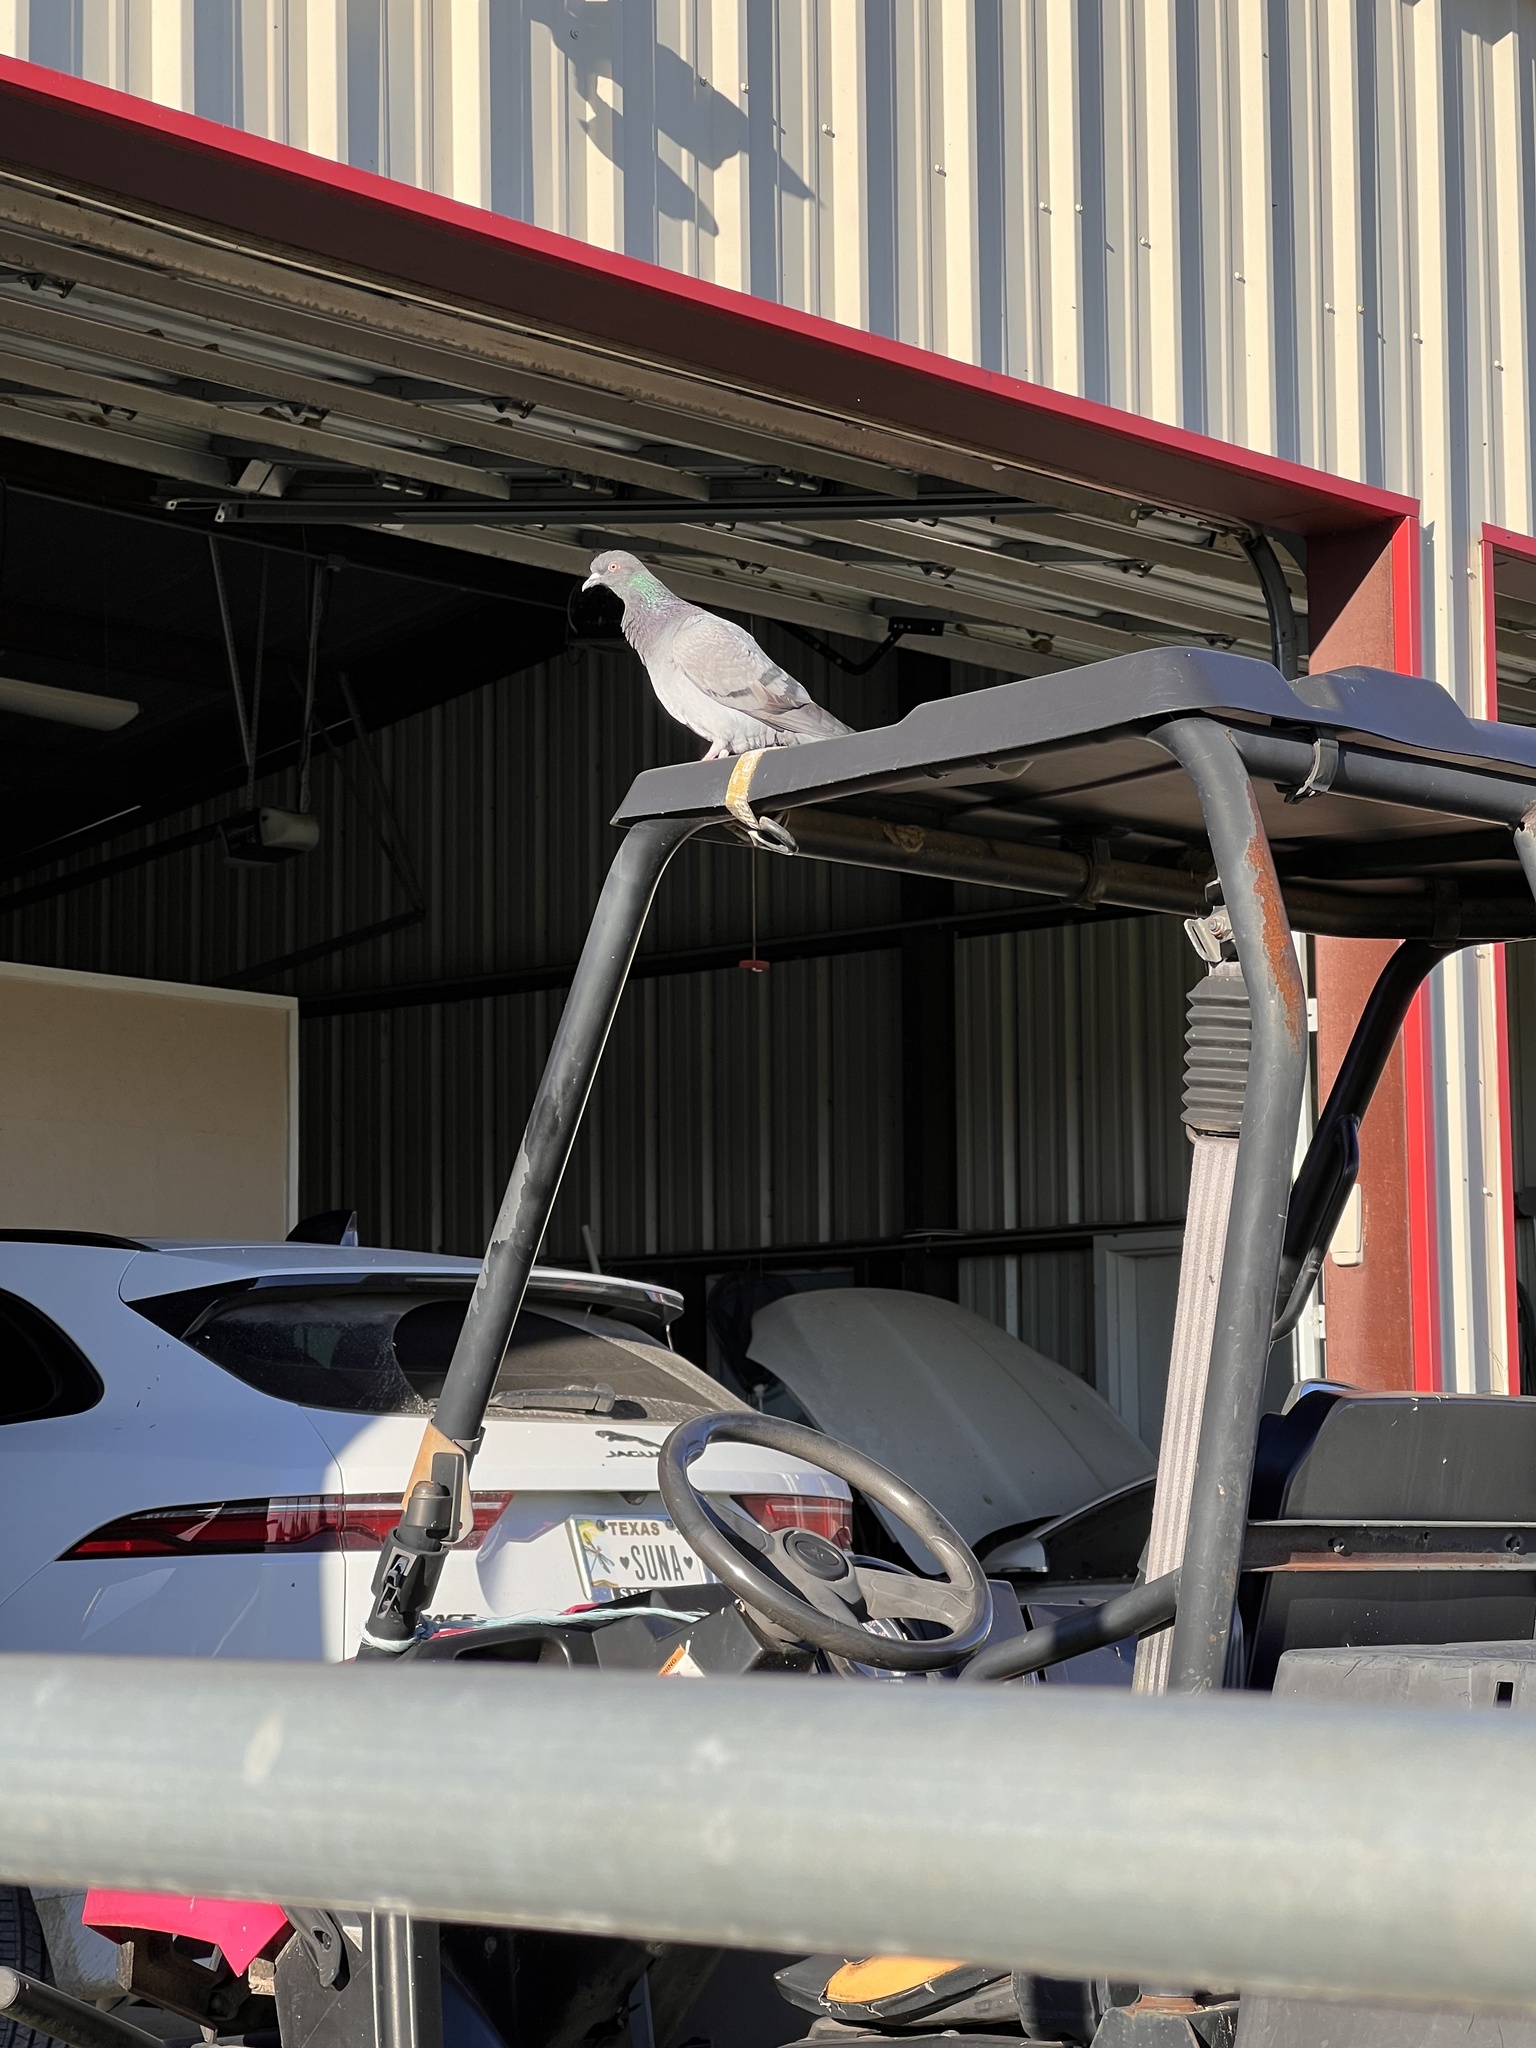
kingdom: Animalia
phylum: Chordata
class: Aves
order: Columbiformes
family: Columbidae
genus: Columba
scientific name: Columba livia
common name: Rock pigeon
